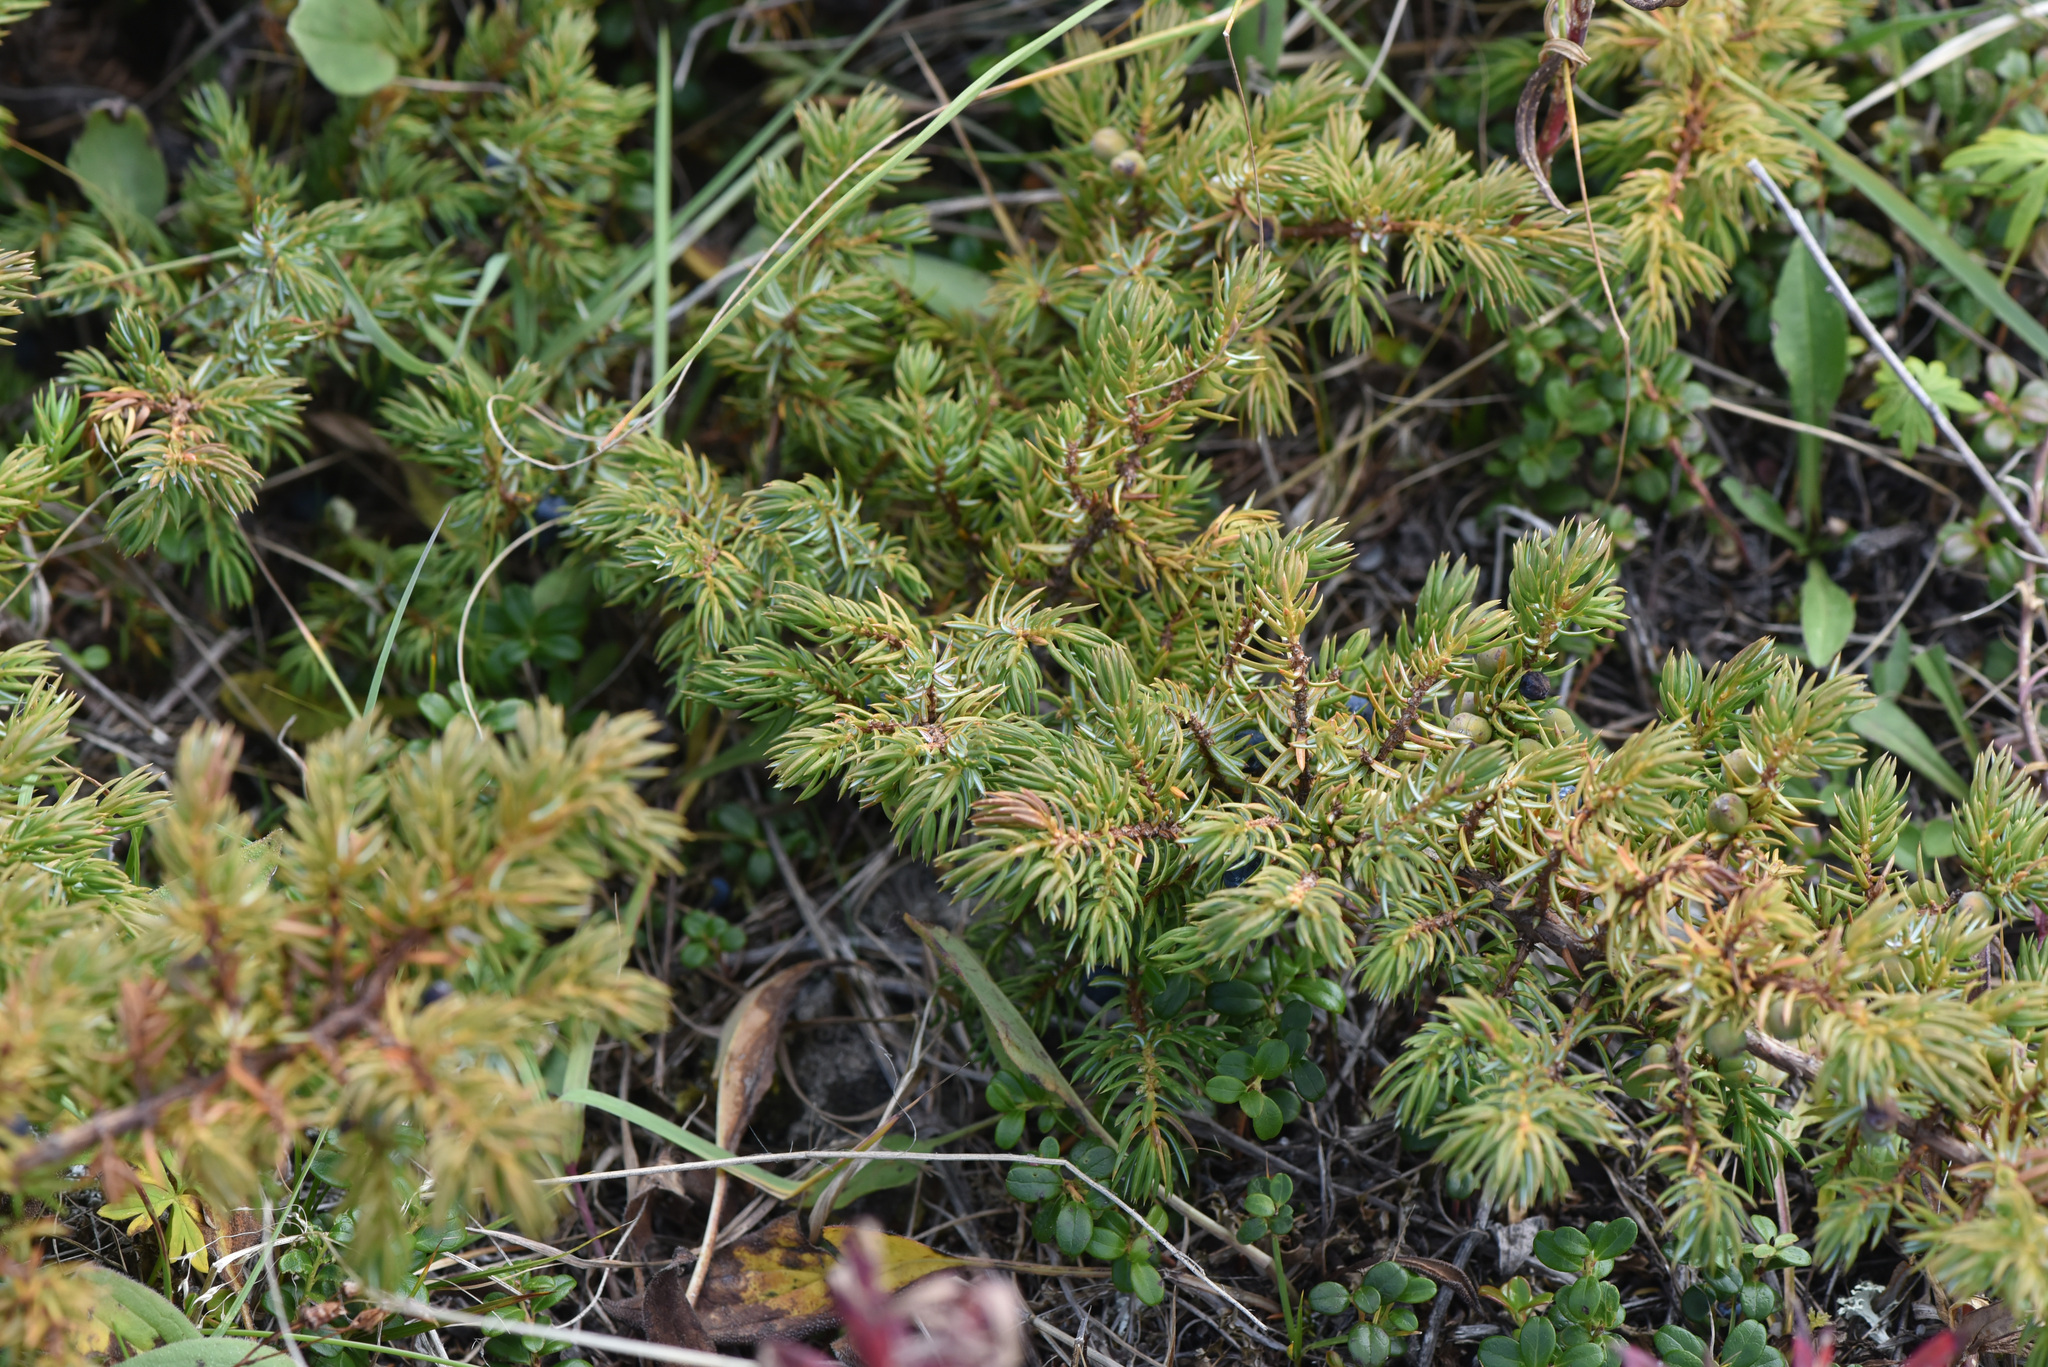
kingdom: Plantae
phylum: Tracheophyta
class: Pinopsida
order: Pinales
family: Cupressaceae
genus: Juniperus
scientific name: Juniperus communis
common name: Common juniper
